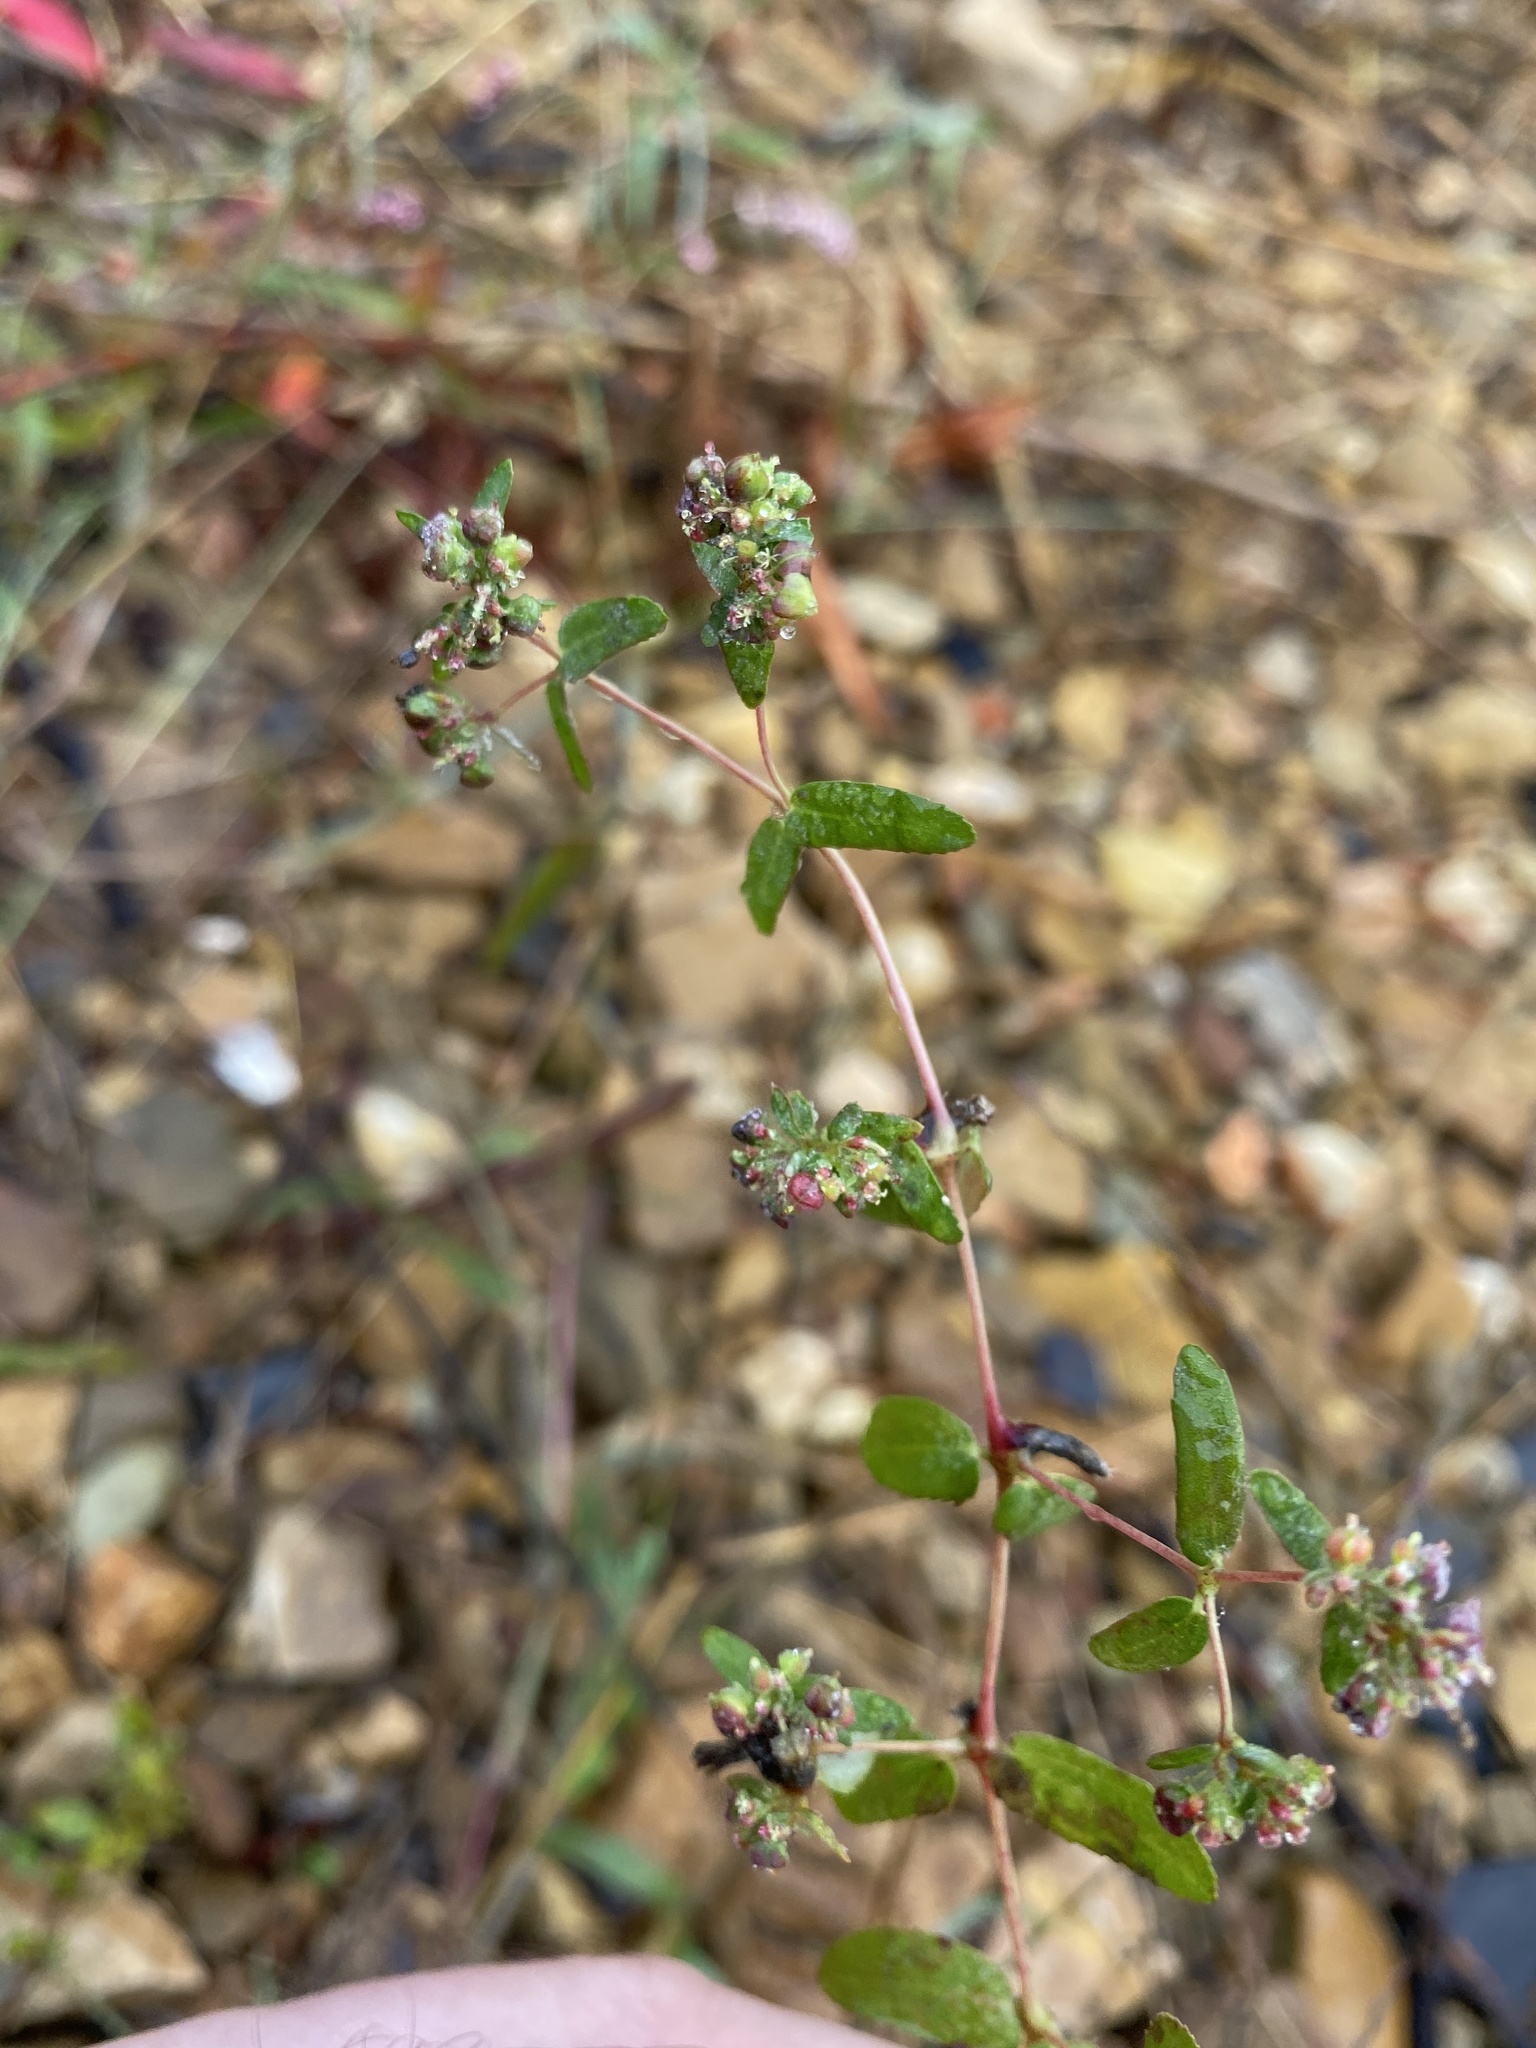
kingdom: Plantae
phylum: Tracheophyta
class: Magnoliopsida
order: Malpighiales
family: Euphorbiaceae
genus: Euphorbia
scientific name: Euphorbia nutans
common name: Eyebane
